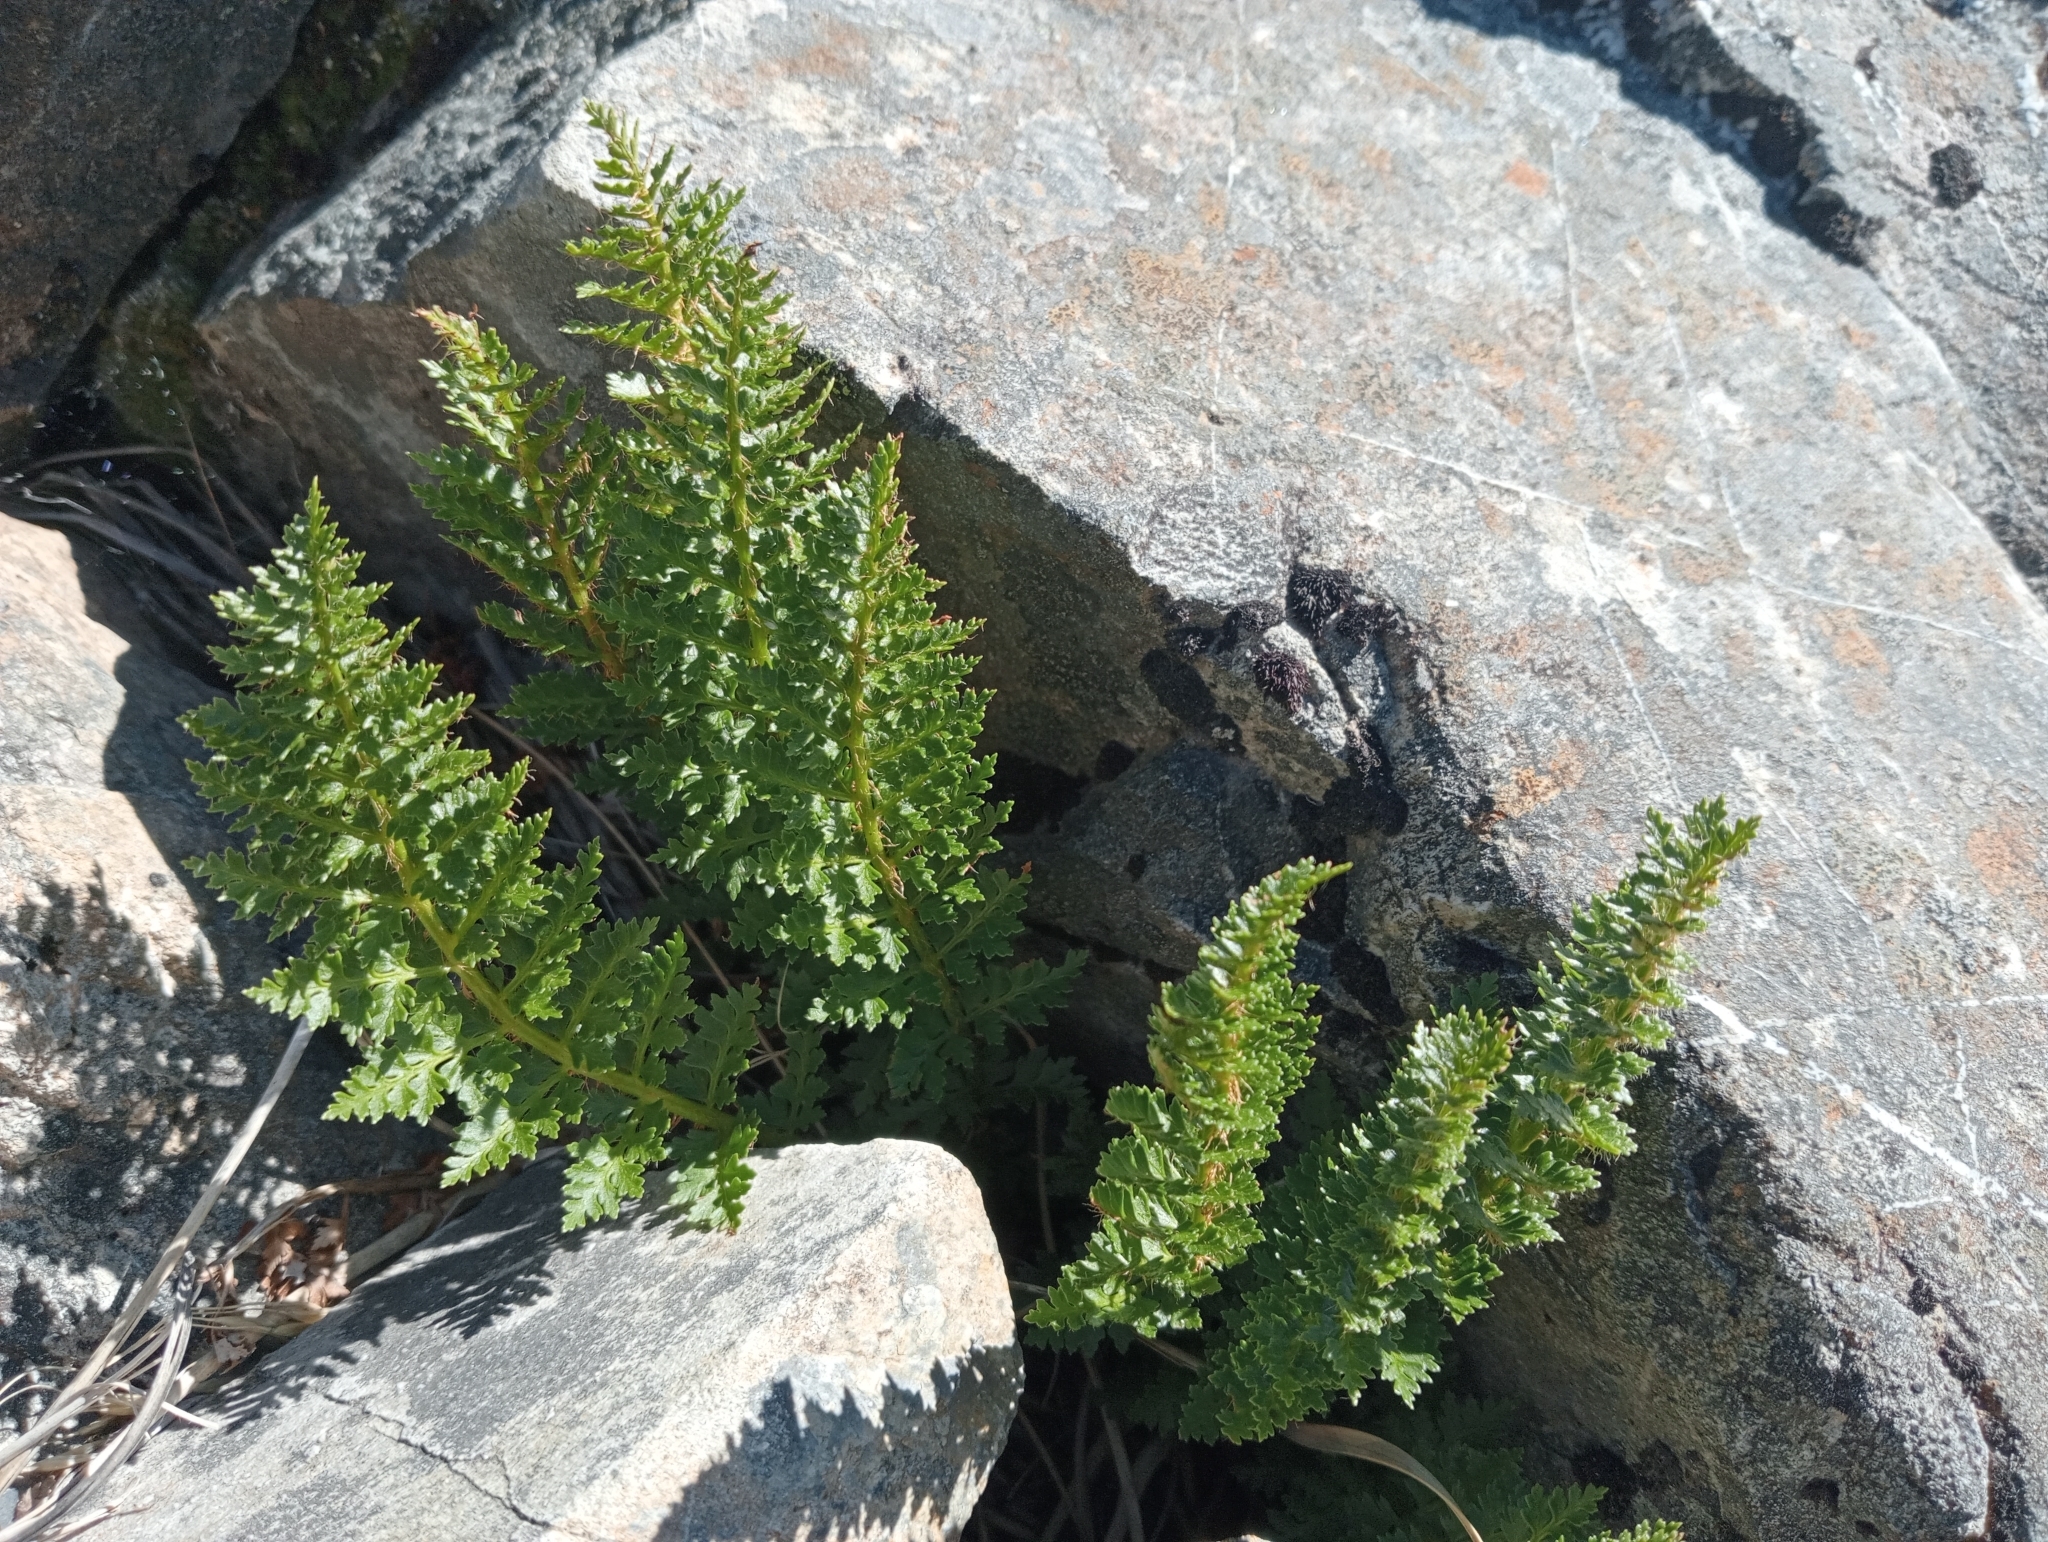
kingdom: Plantae
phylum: Tracheophyta
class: Polypodiopsida
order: Polypodiales
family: Dryopteridaceae
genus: Polystichum
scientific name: Polystichum cystostegia
